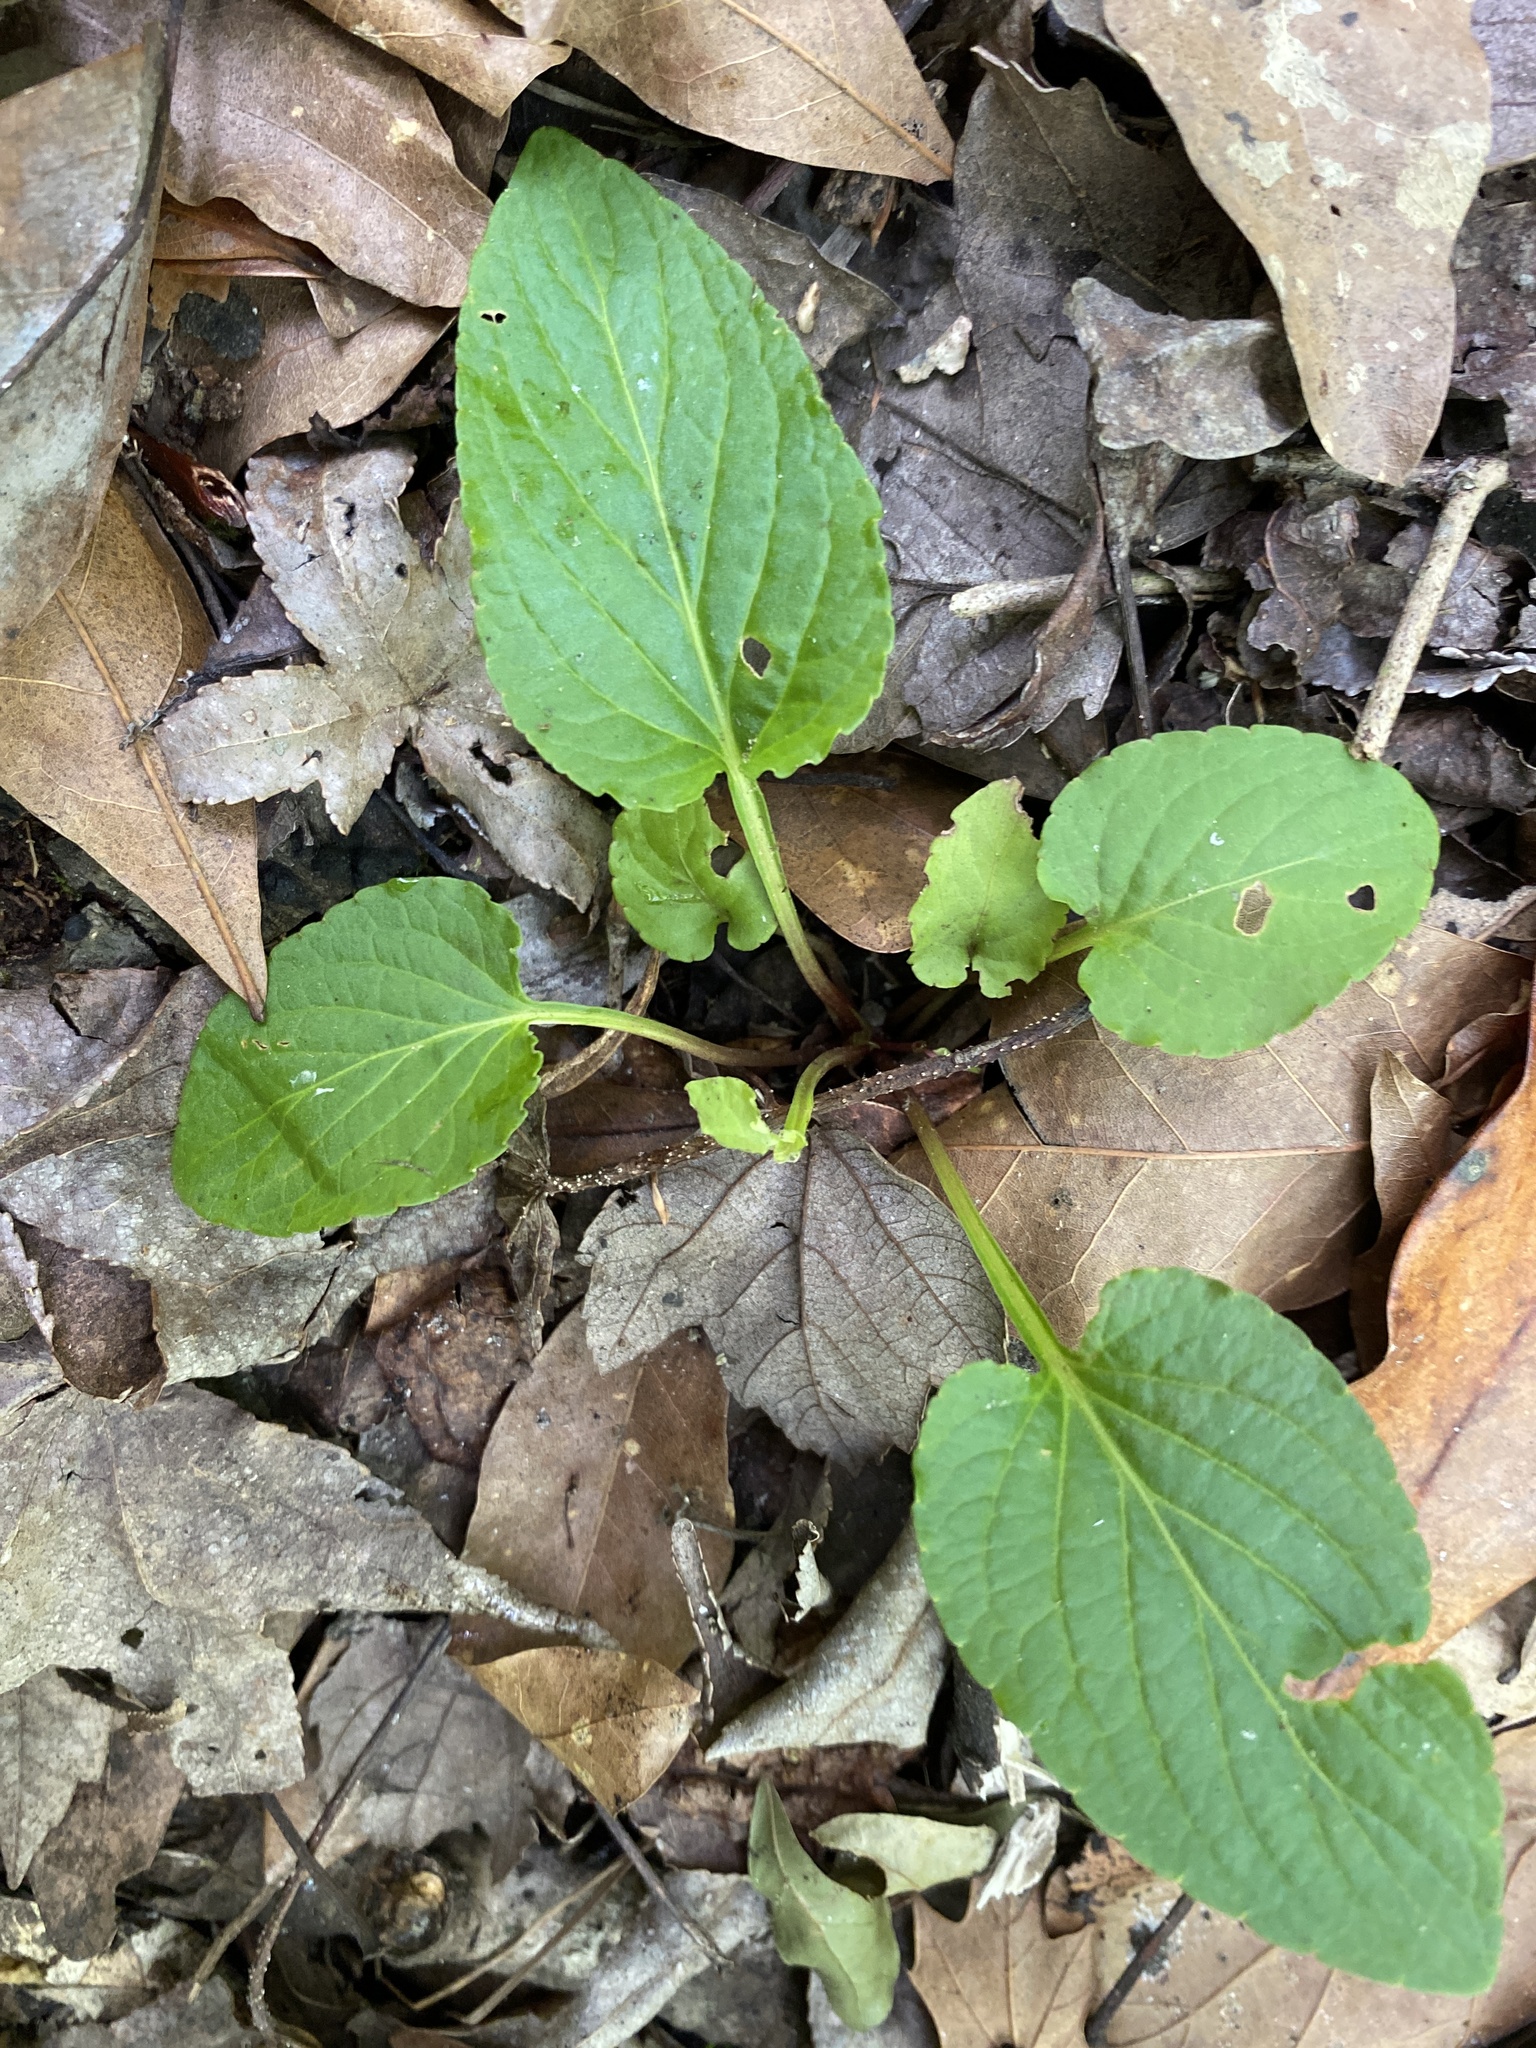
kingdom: Plantae
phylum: Tracheophyta
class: Magnoliopsida
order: Malpighiales
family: Violaceae
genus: Viola
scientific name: Viola primulifolia
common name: Primrose-leaf violet
